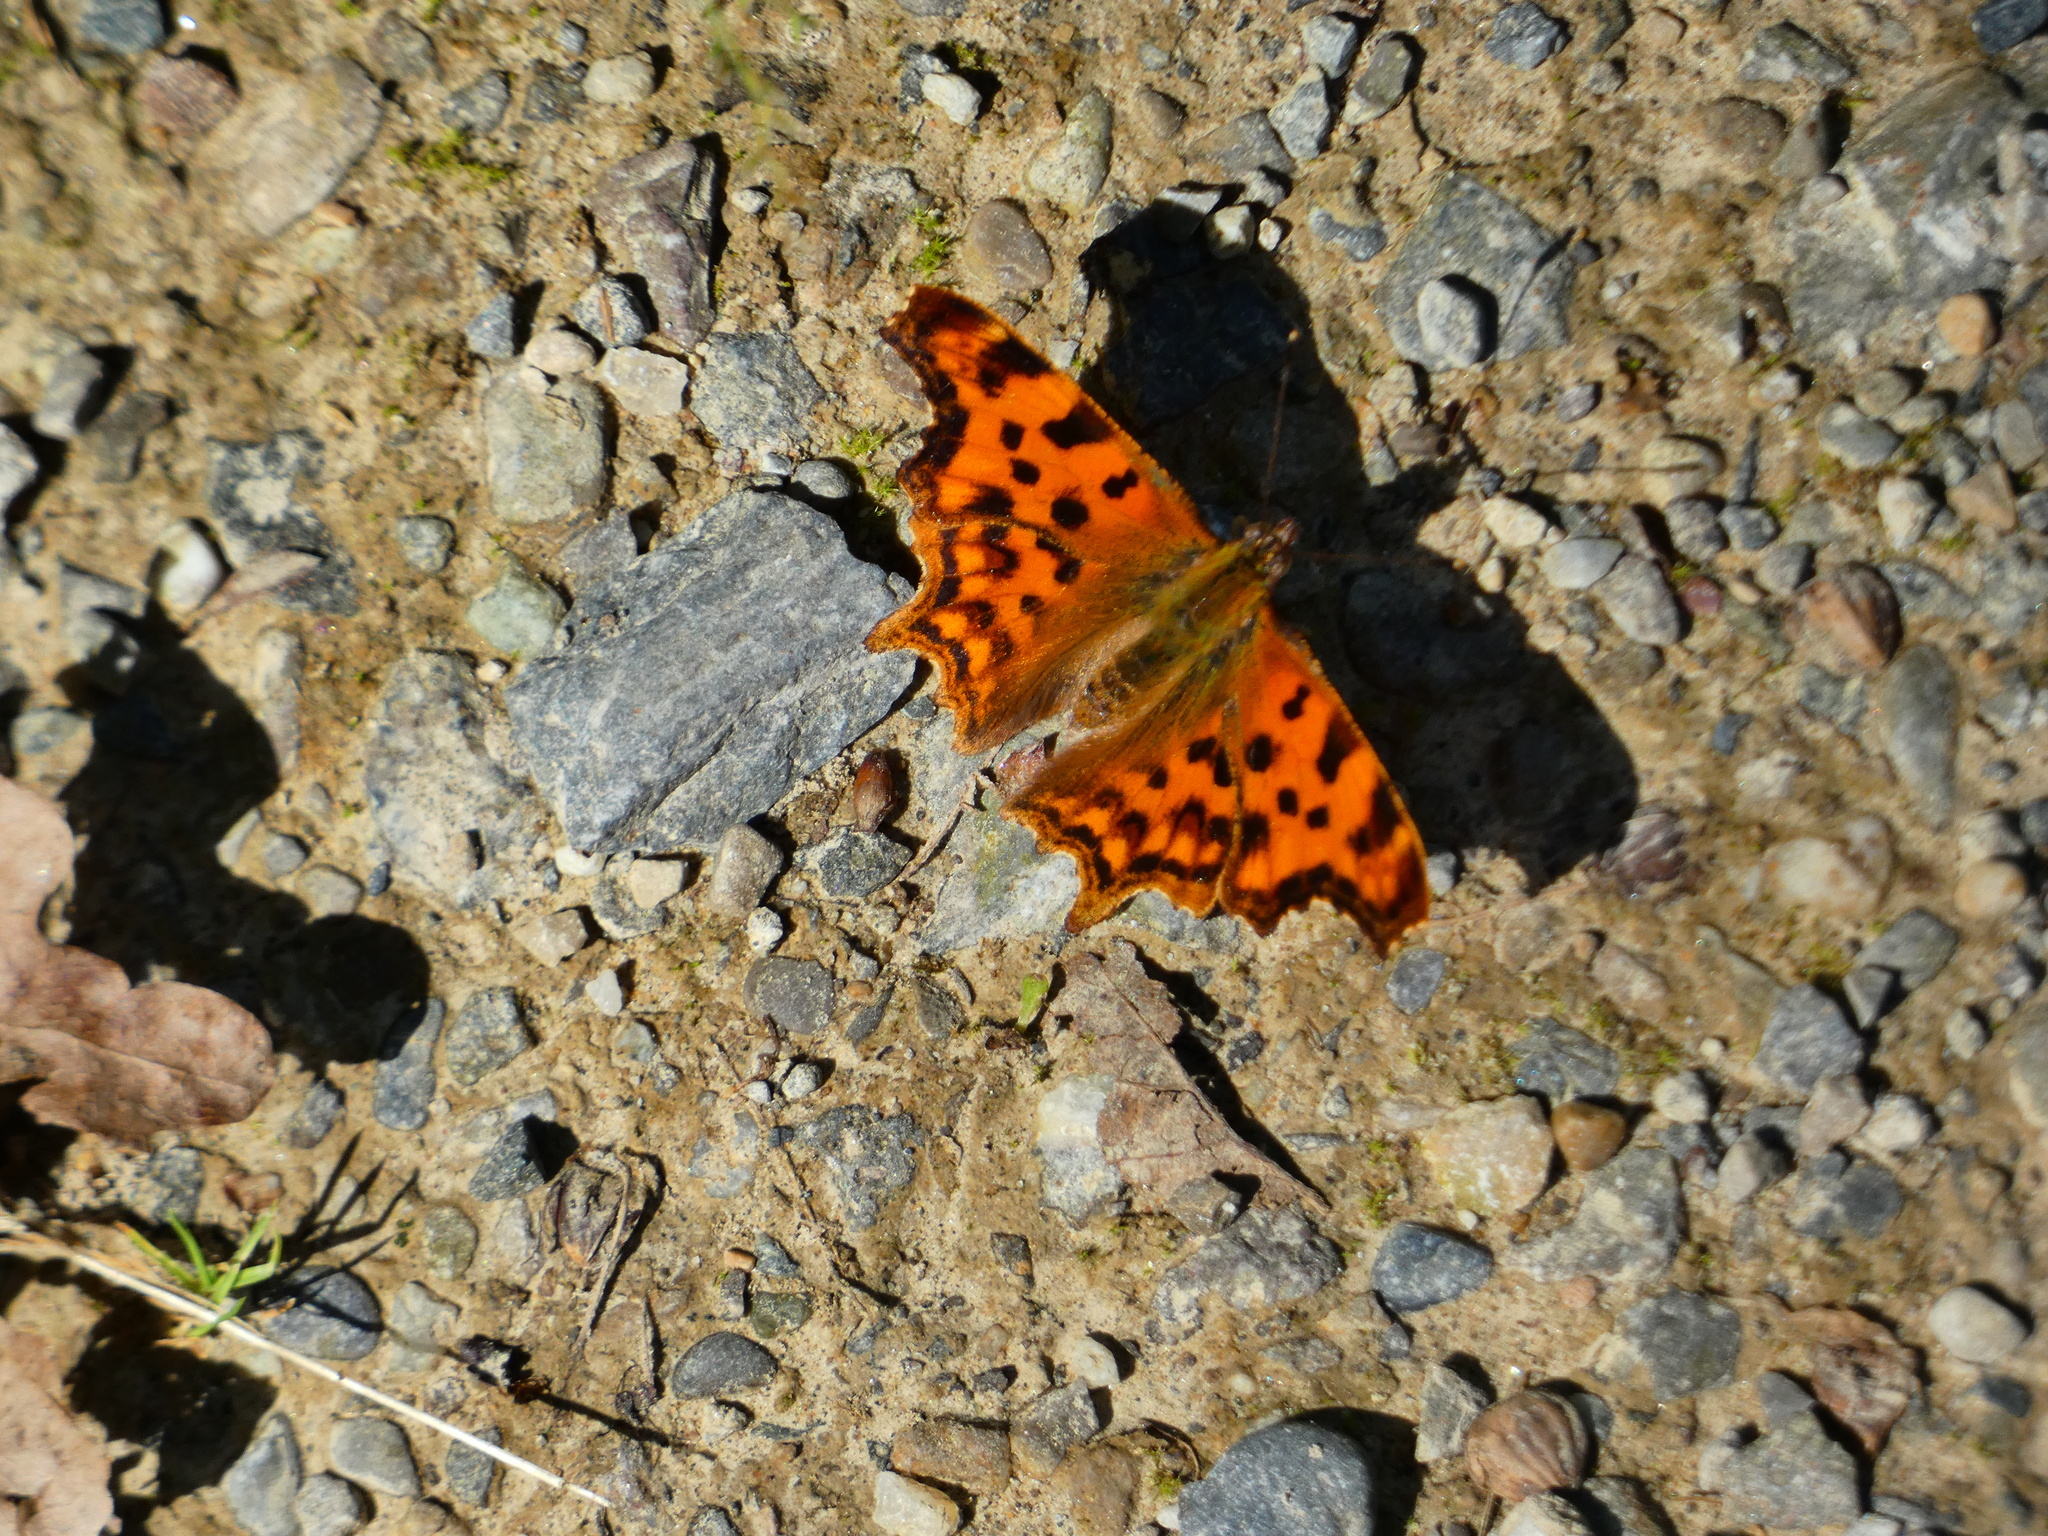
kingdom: Animalia
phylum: Arthropoda
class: Insecta
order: Lepidoptera
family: Nymphalidae
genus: Polygonia
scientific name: Polygonia c-album
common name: Comma
